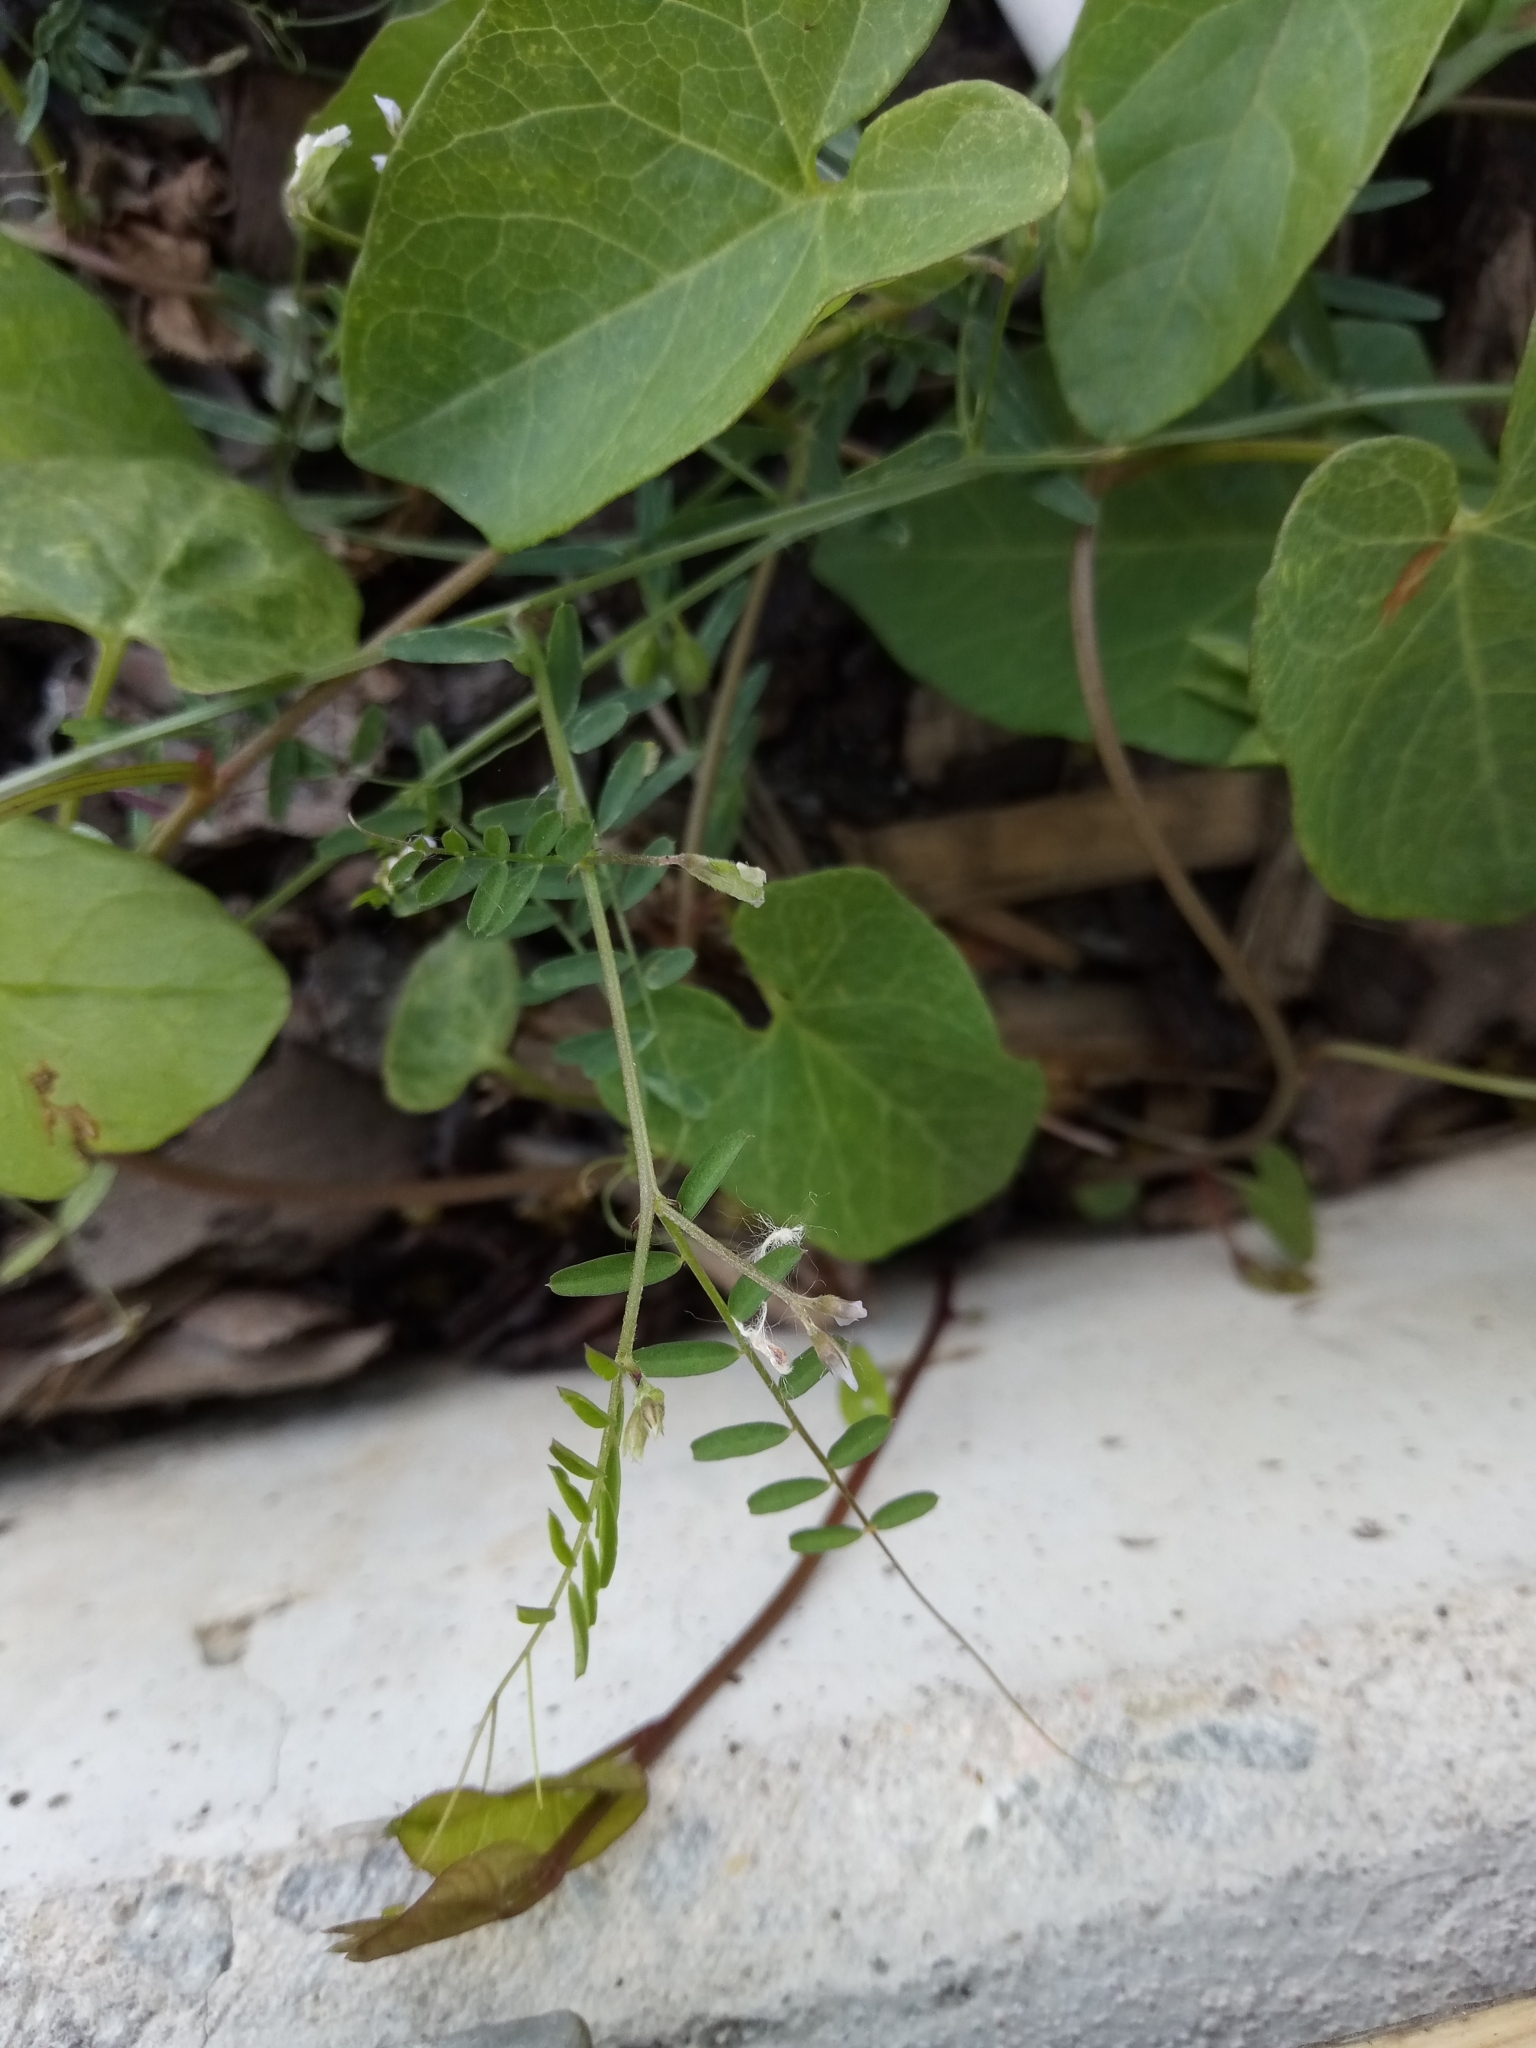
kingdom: Plantae
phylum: Tracheophyta
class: Magnoliopsida
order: Fabales
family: Fabaceae
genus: Vicia
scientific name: Vicia hirsuta
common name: Tiny vetch
